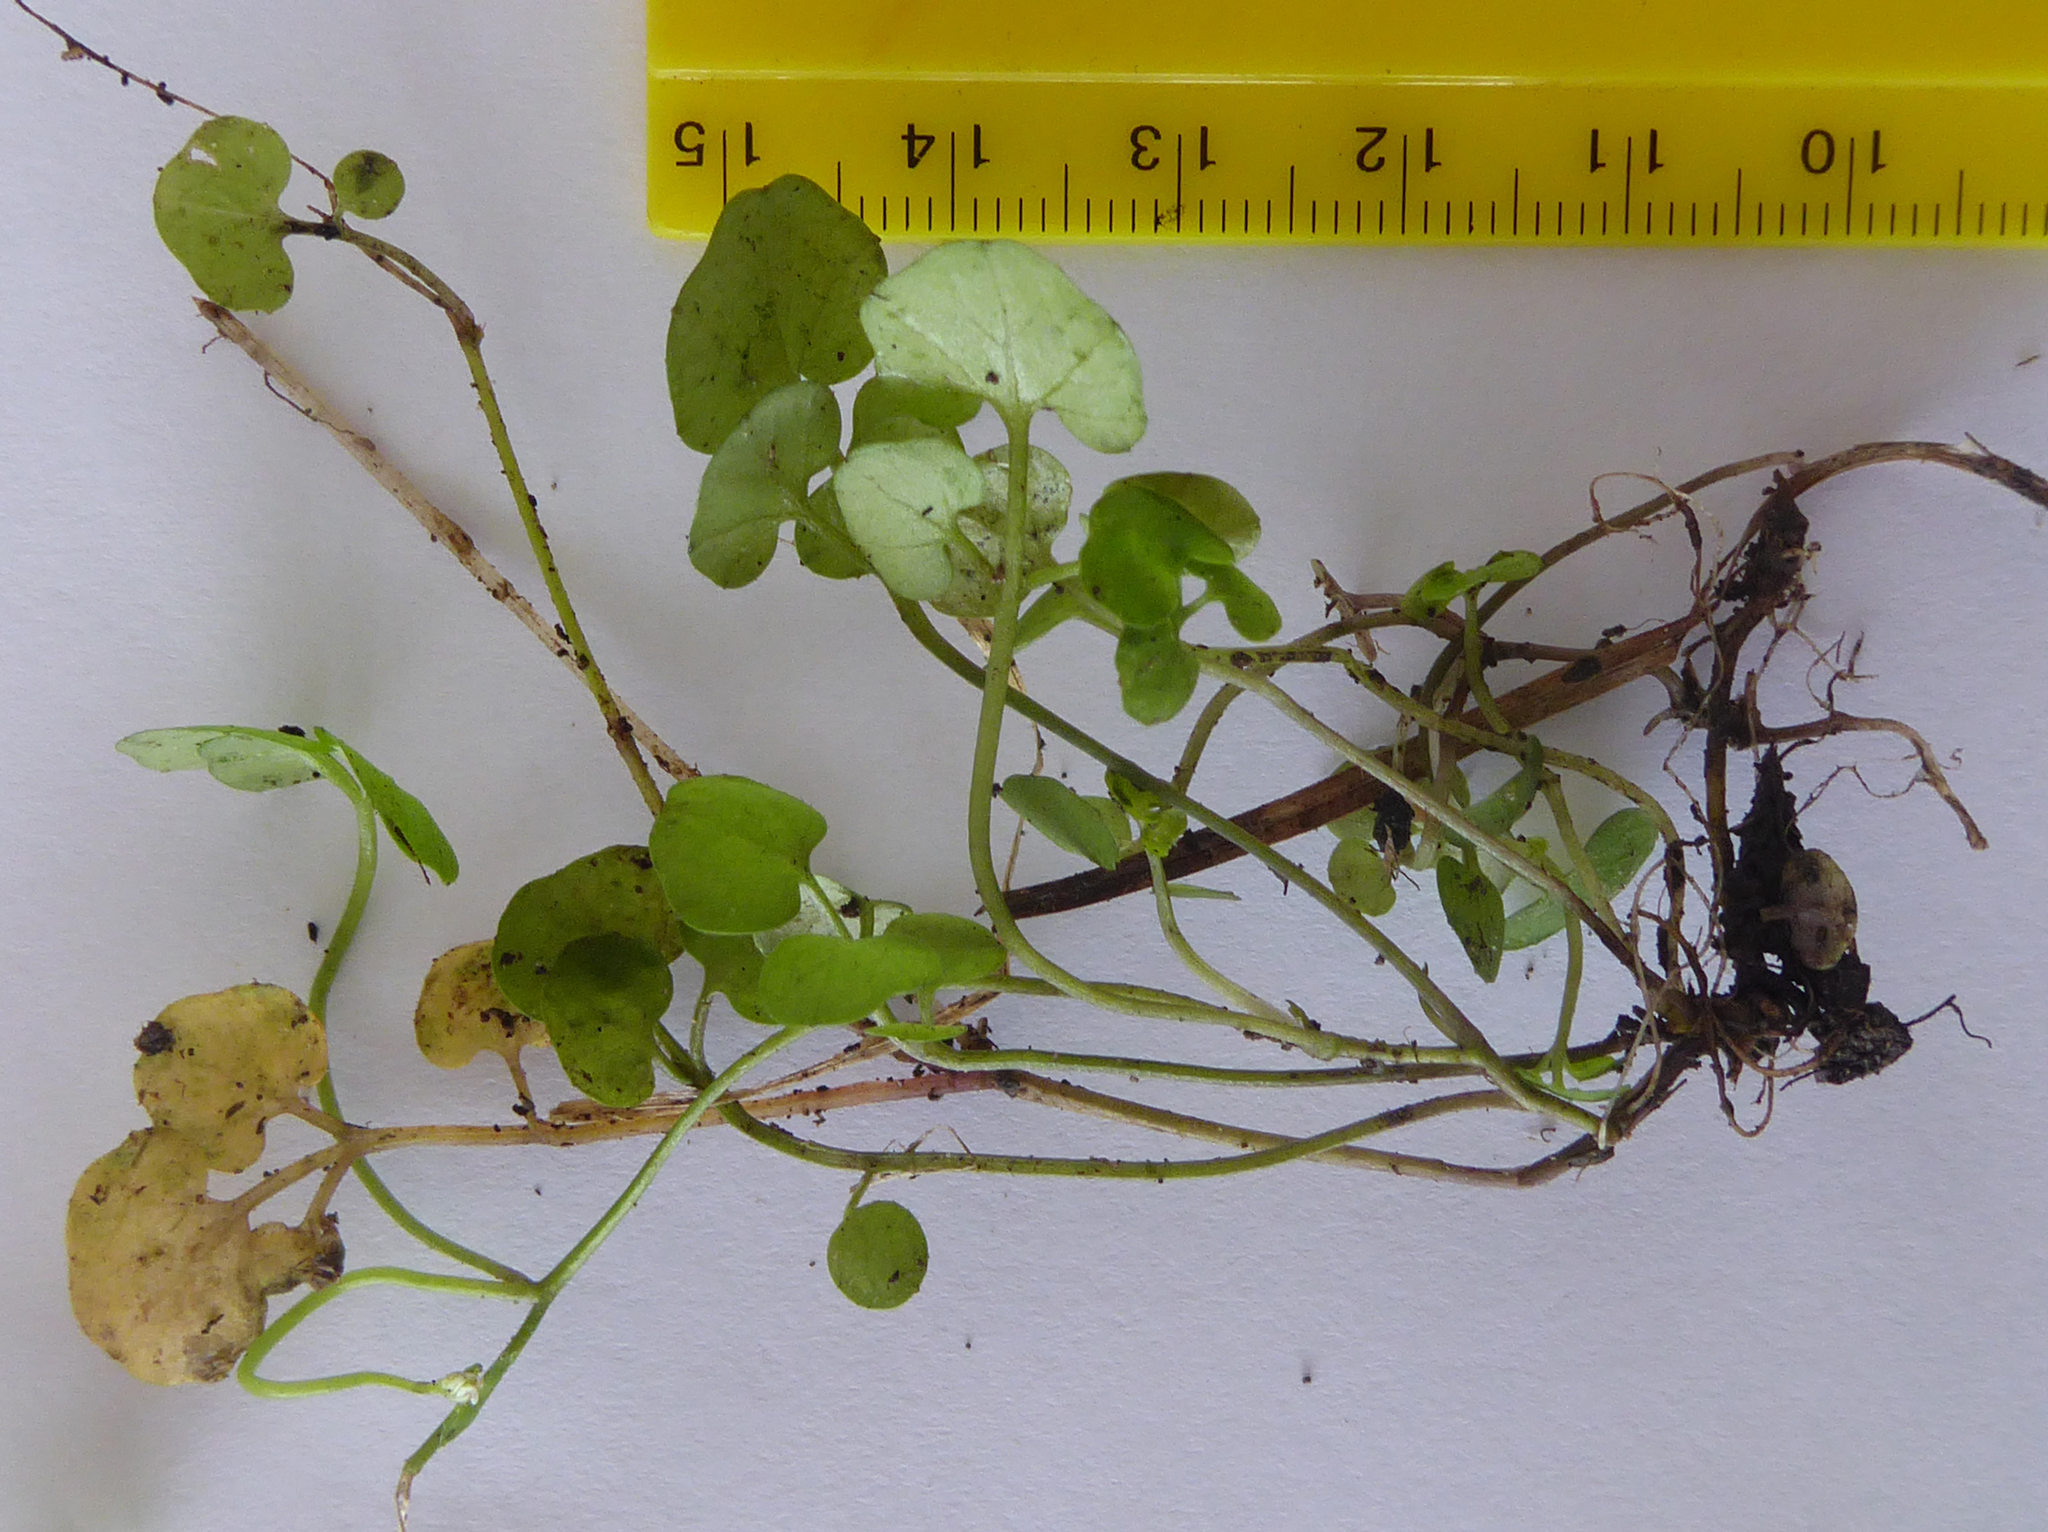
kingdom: Plantae
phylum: Tracheophyta
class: Magnoliopsida
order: Brassicales
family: Brassicaceae
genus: Cardamine
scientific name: Cardamine dolichostyla
